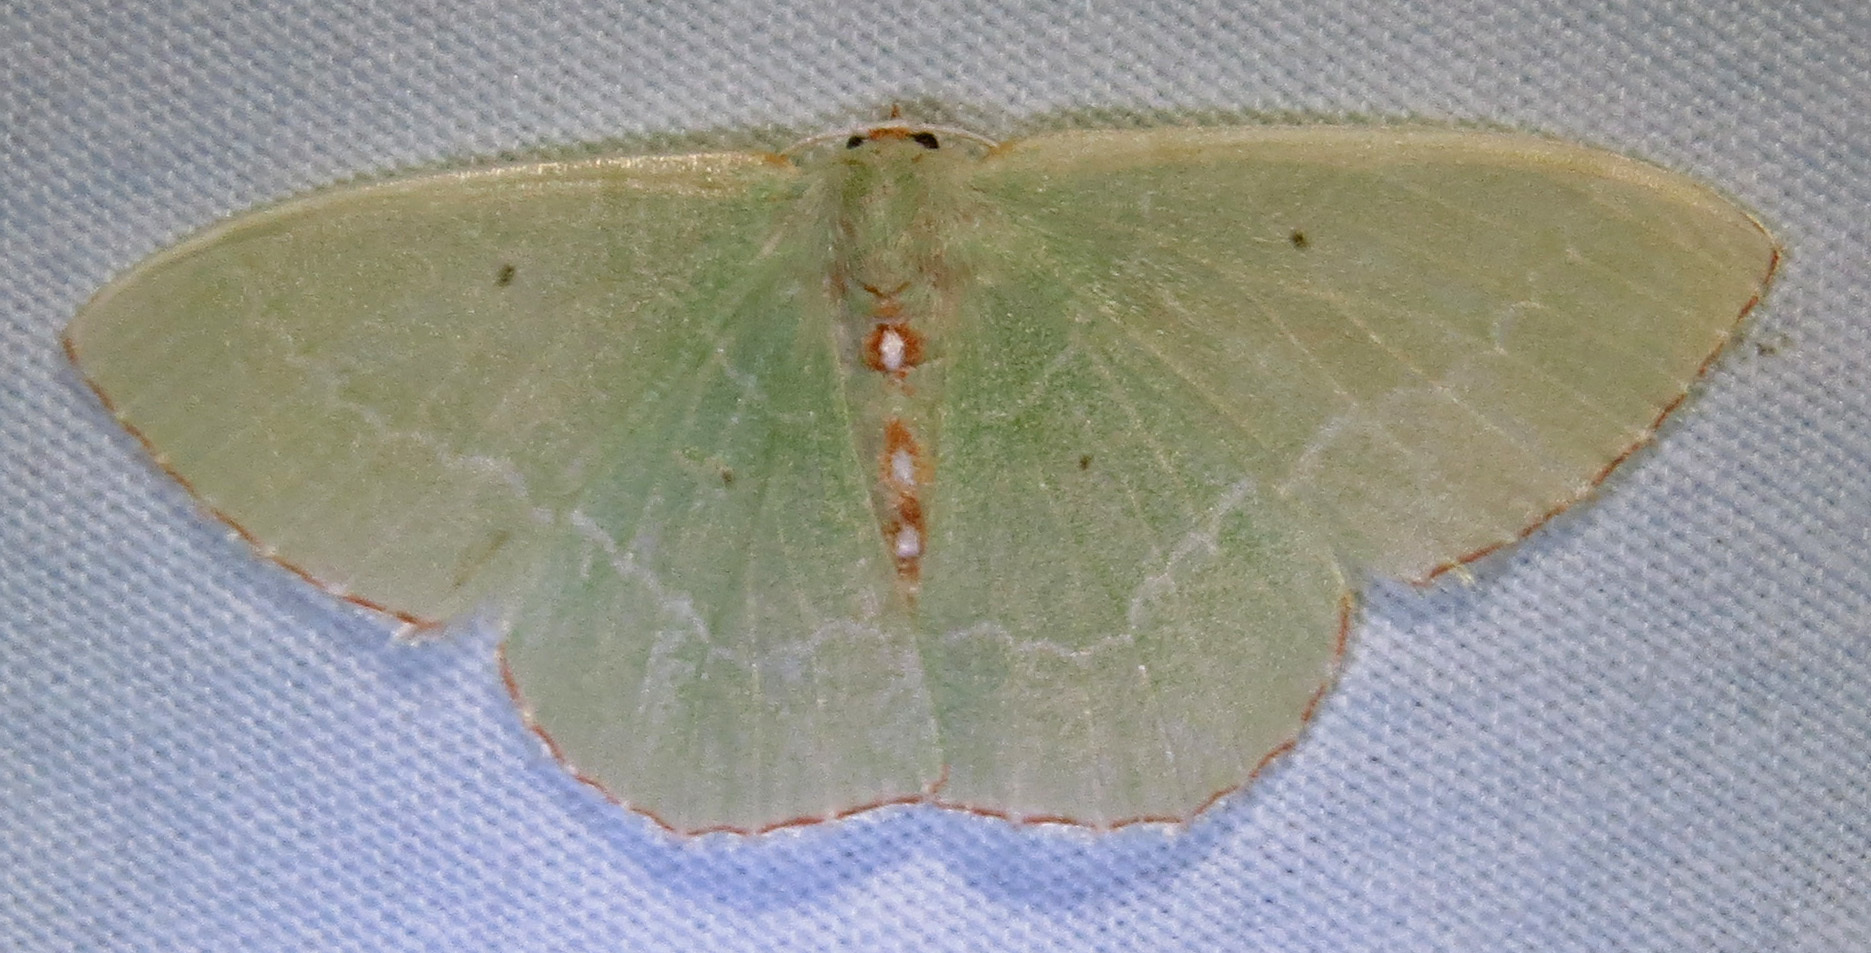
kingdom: Animalia
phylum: Arthropoda
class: Insecta
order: Lepidoptera
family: Geometridae
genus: Nemoria
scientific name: Nemoria lixaria
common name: Red-bordered emerald
